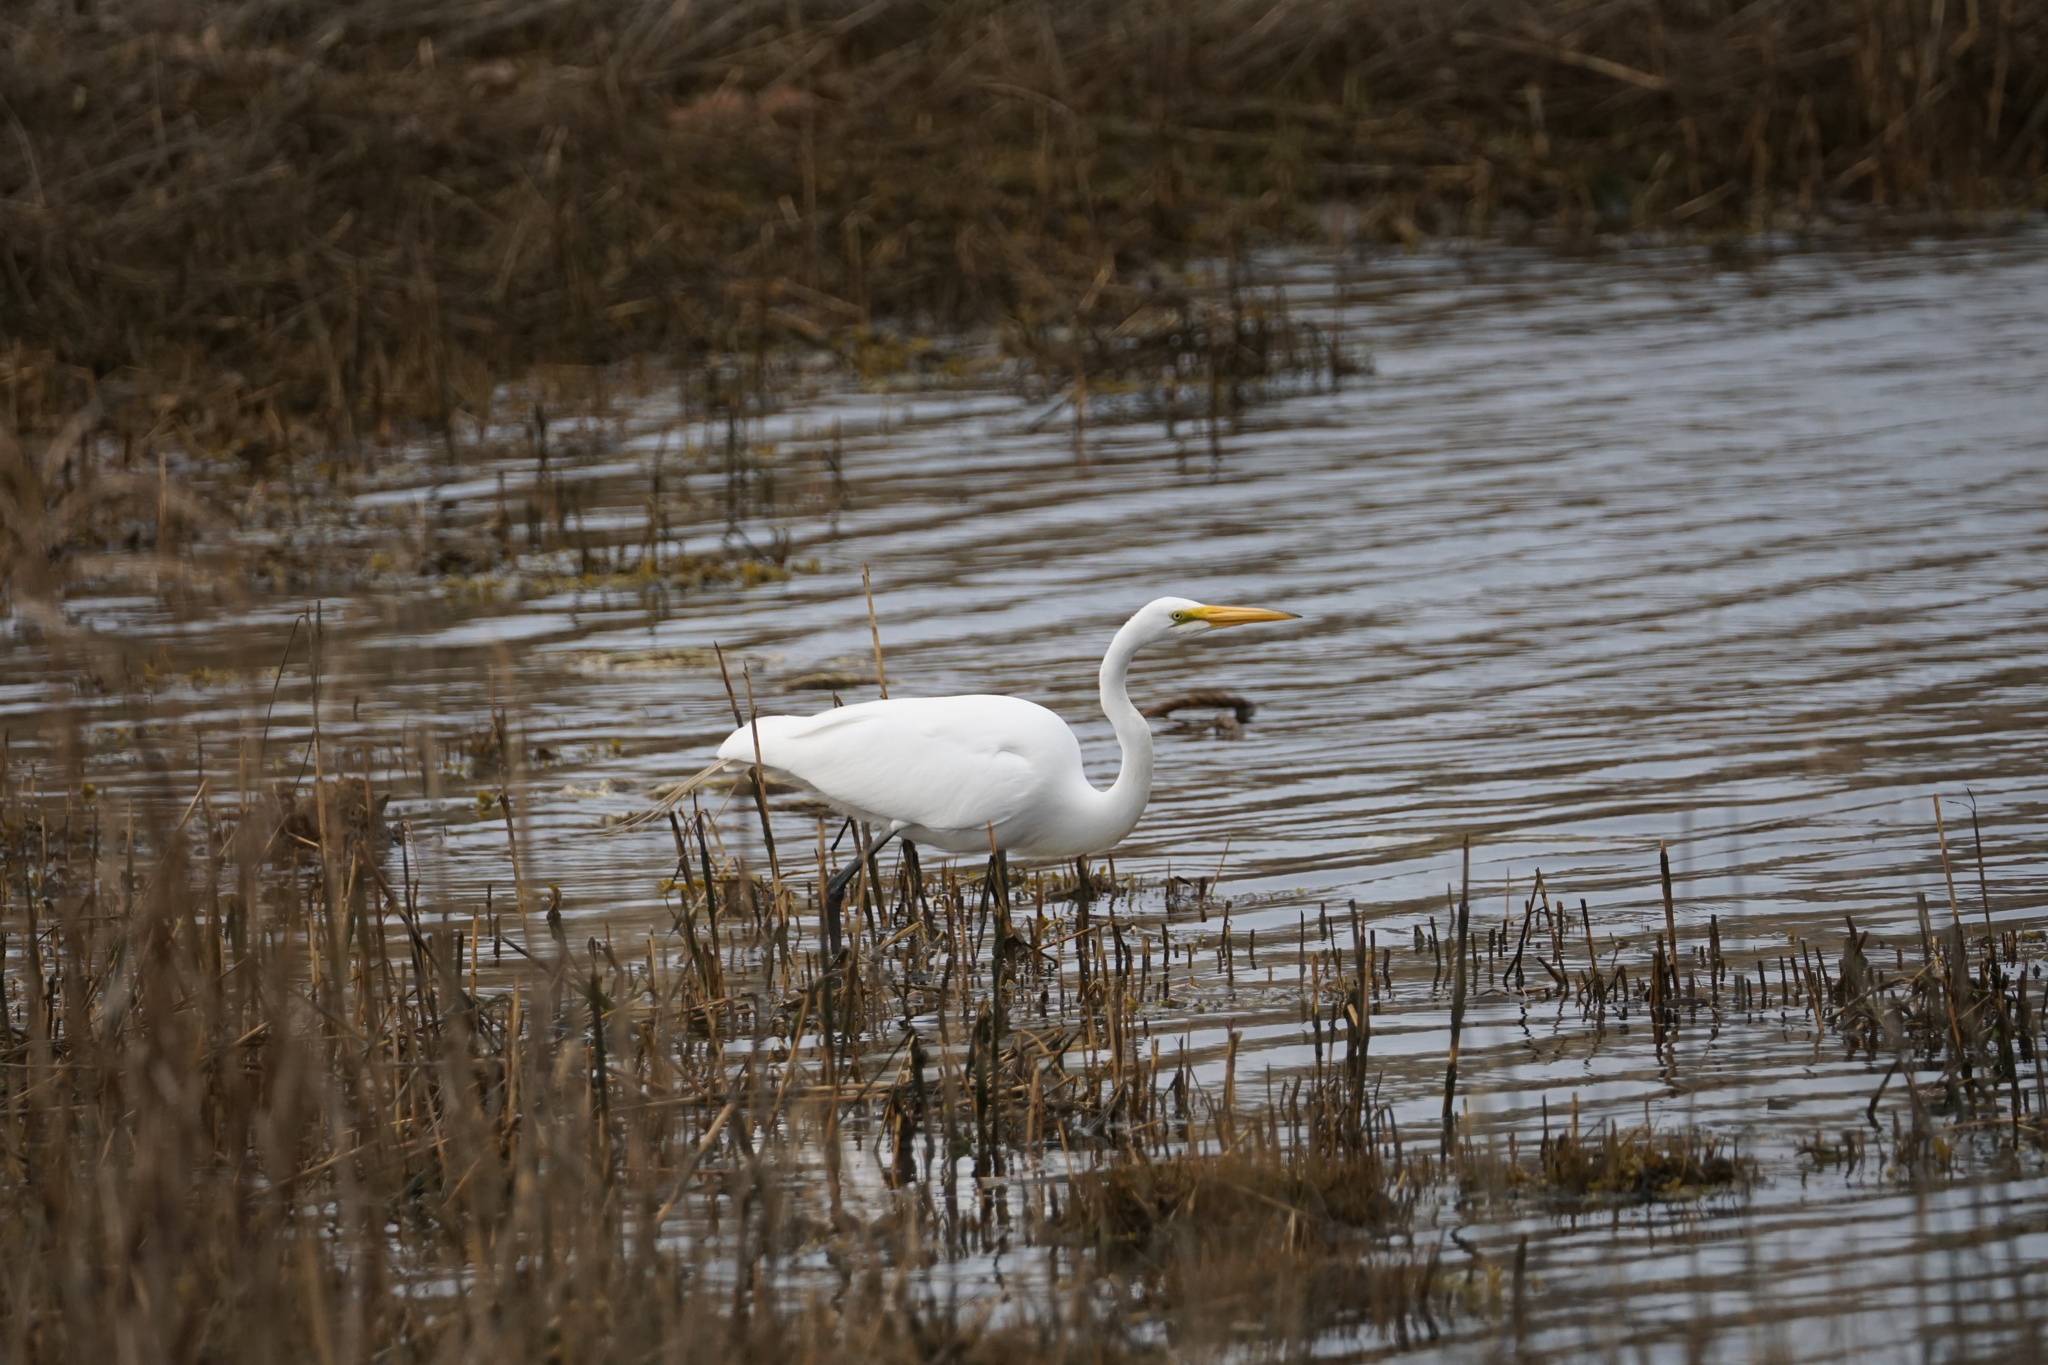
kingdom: Animalia
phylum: Chordata
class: Aves
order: Pelecaniformes
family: Ardeidae
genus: Ardea
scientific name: Ardea alba
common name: Great egret
